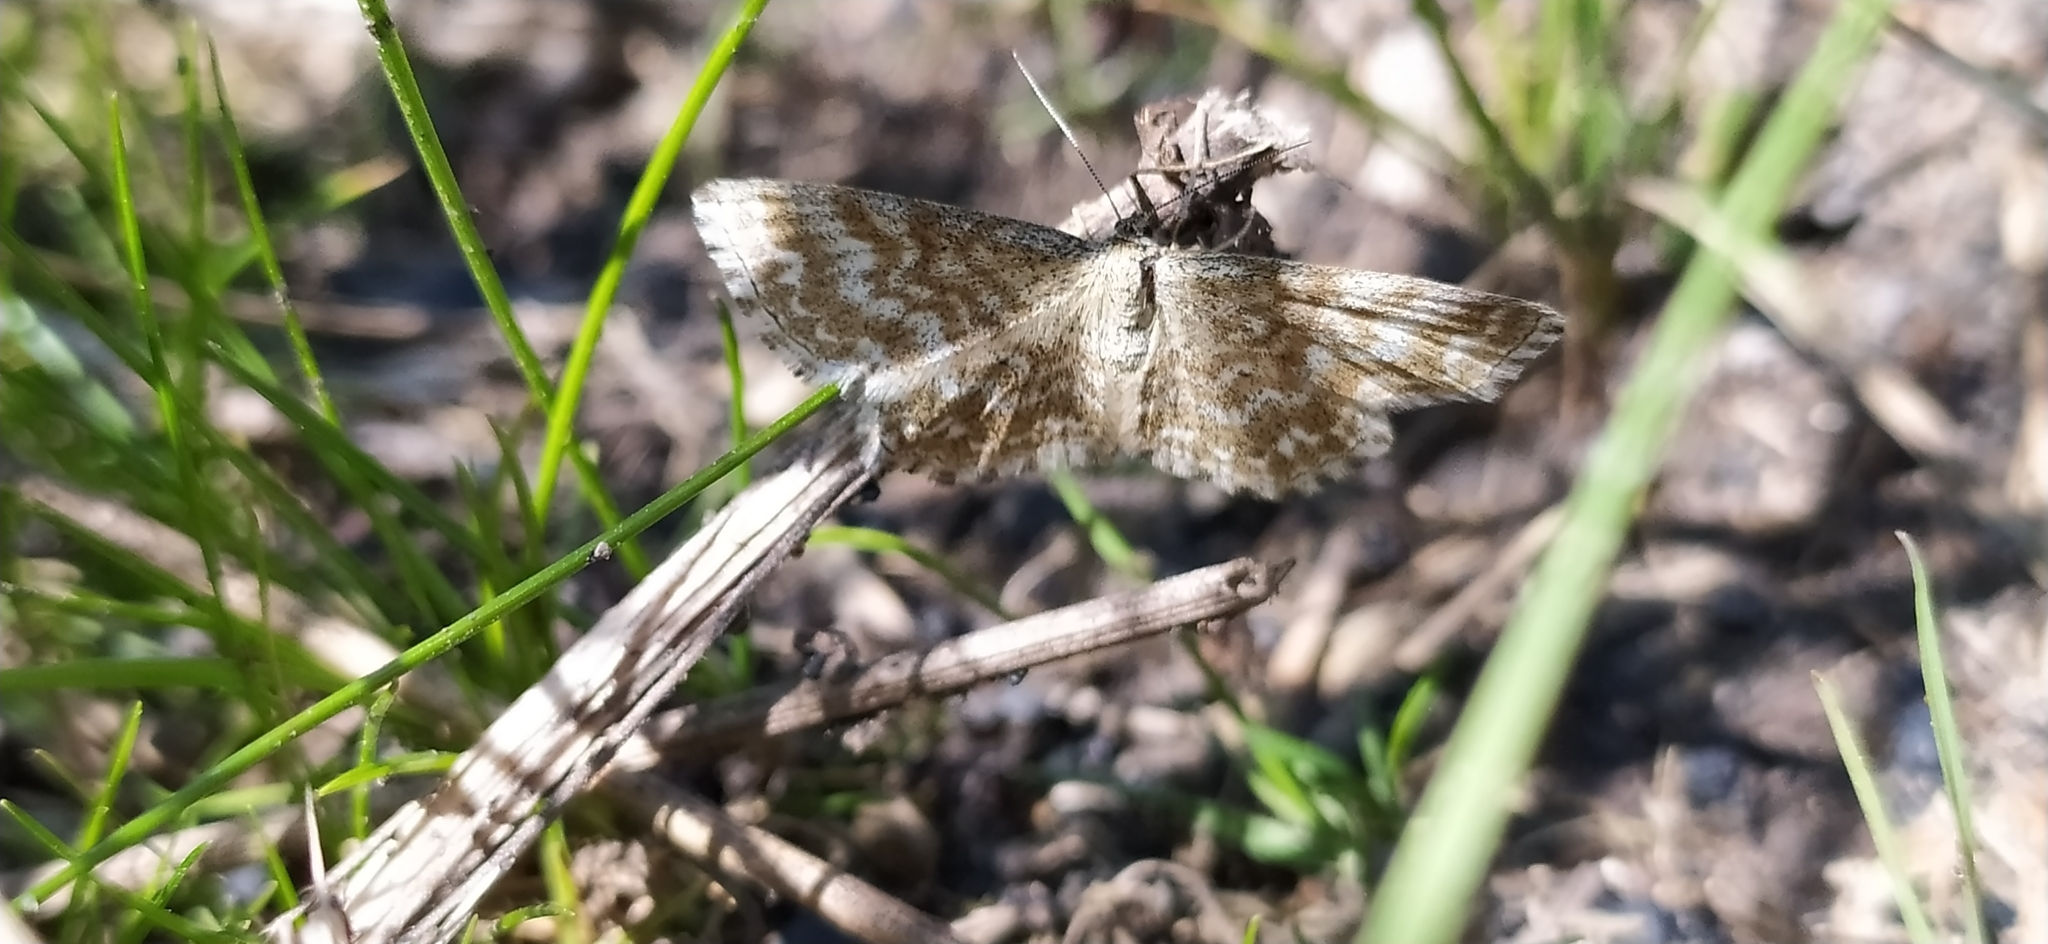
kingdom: Animalia
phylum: Arthropoda
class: Insecta
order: Lepidoptera
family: Geometridae
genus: Scopula
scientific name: Scopula immorata
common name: Lewes wave
